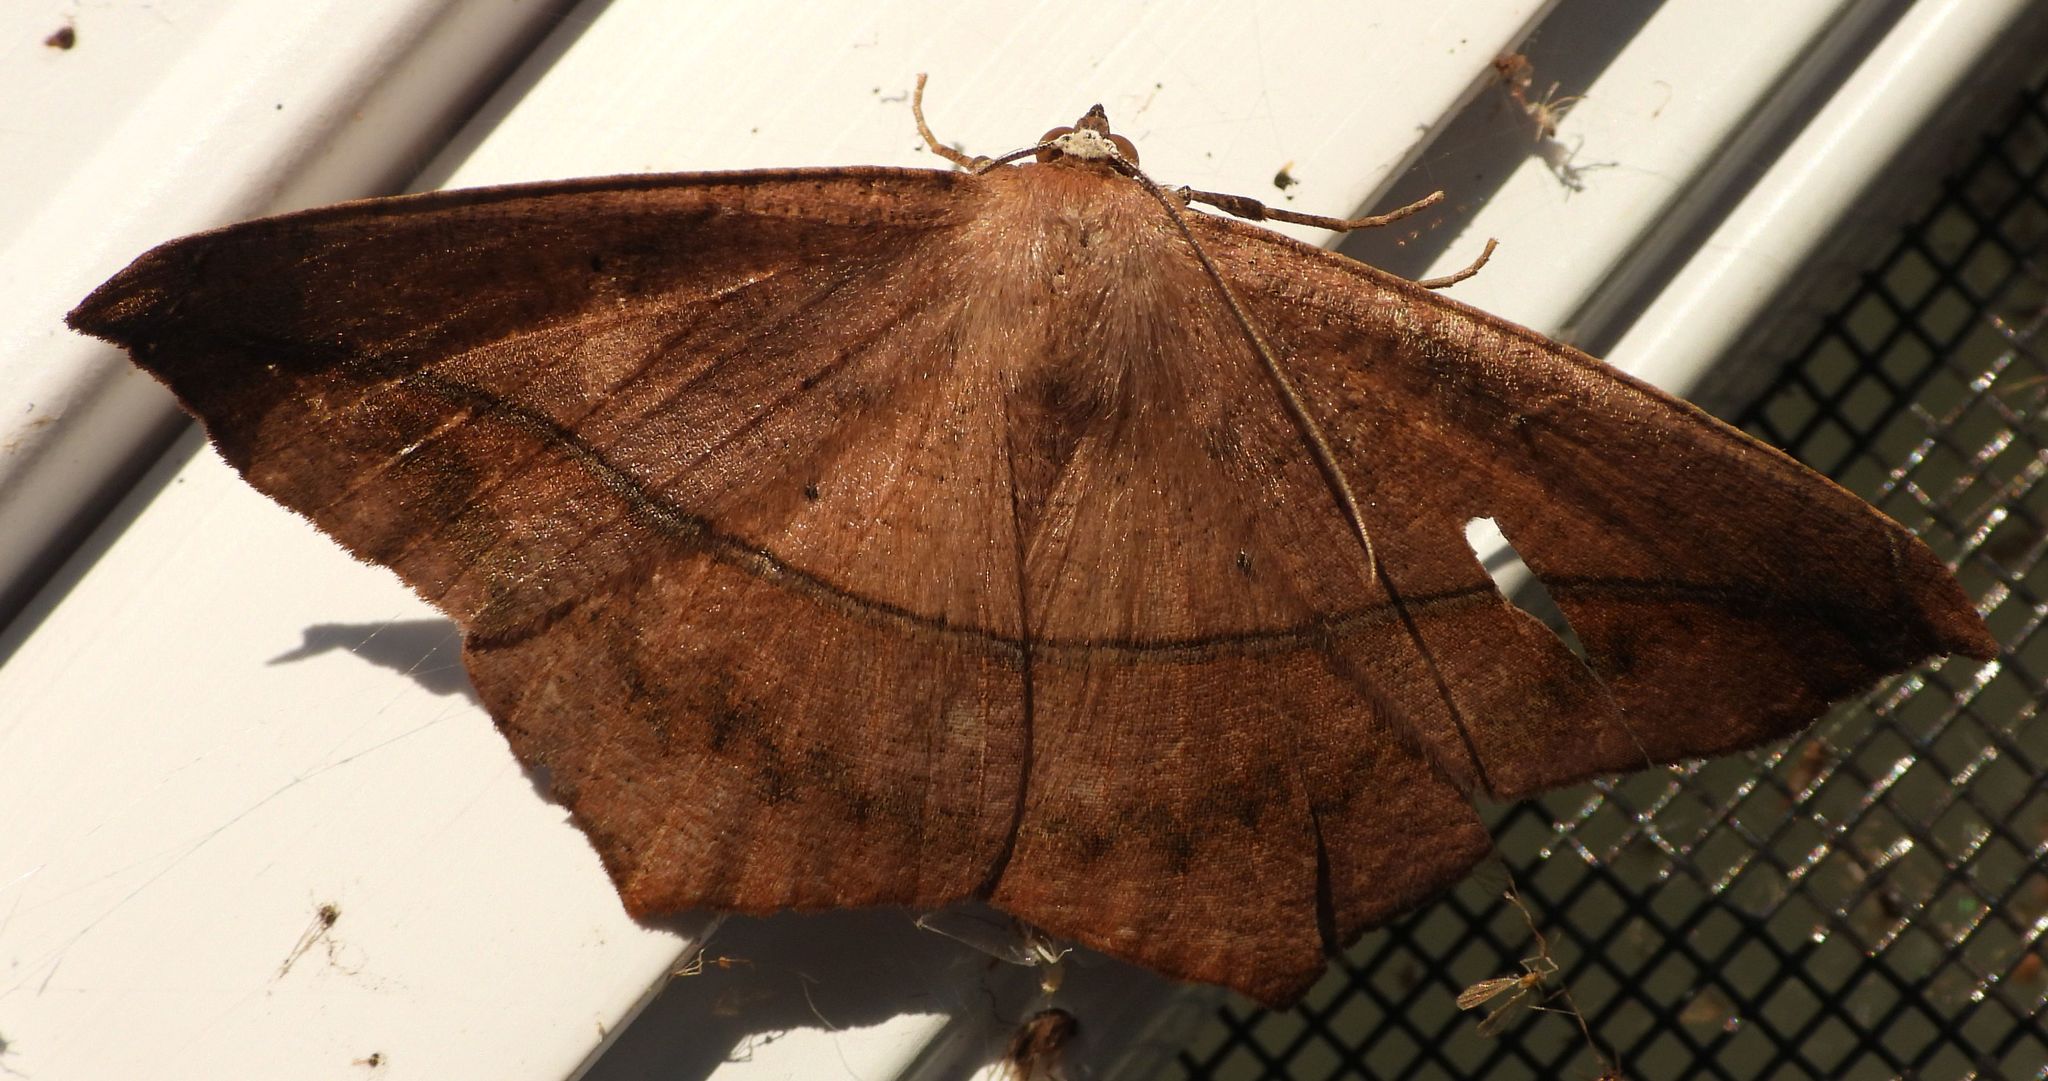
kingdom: Animalia
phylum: Arthropoda
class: Insecta
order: Lepidoptera
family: Geometridae
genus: Prochoerodes
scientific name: Prochoerodes lineola
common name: Large maple spanworm
